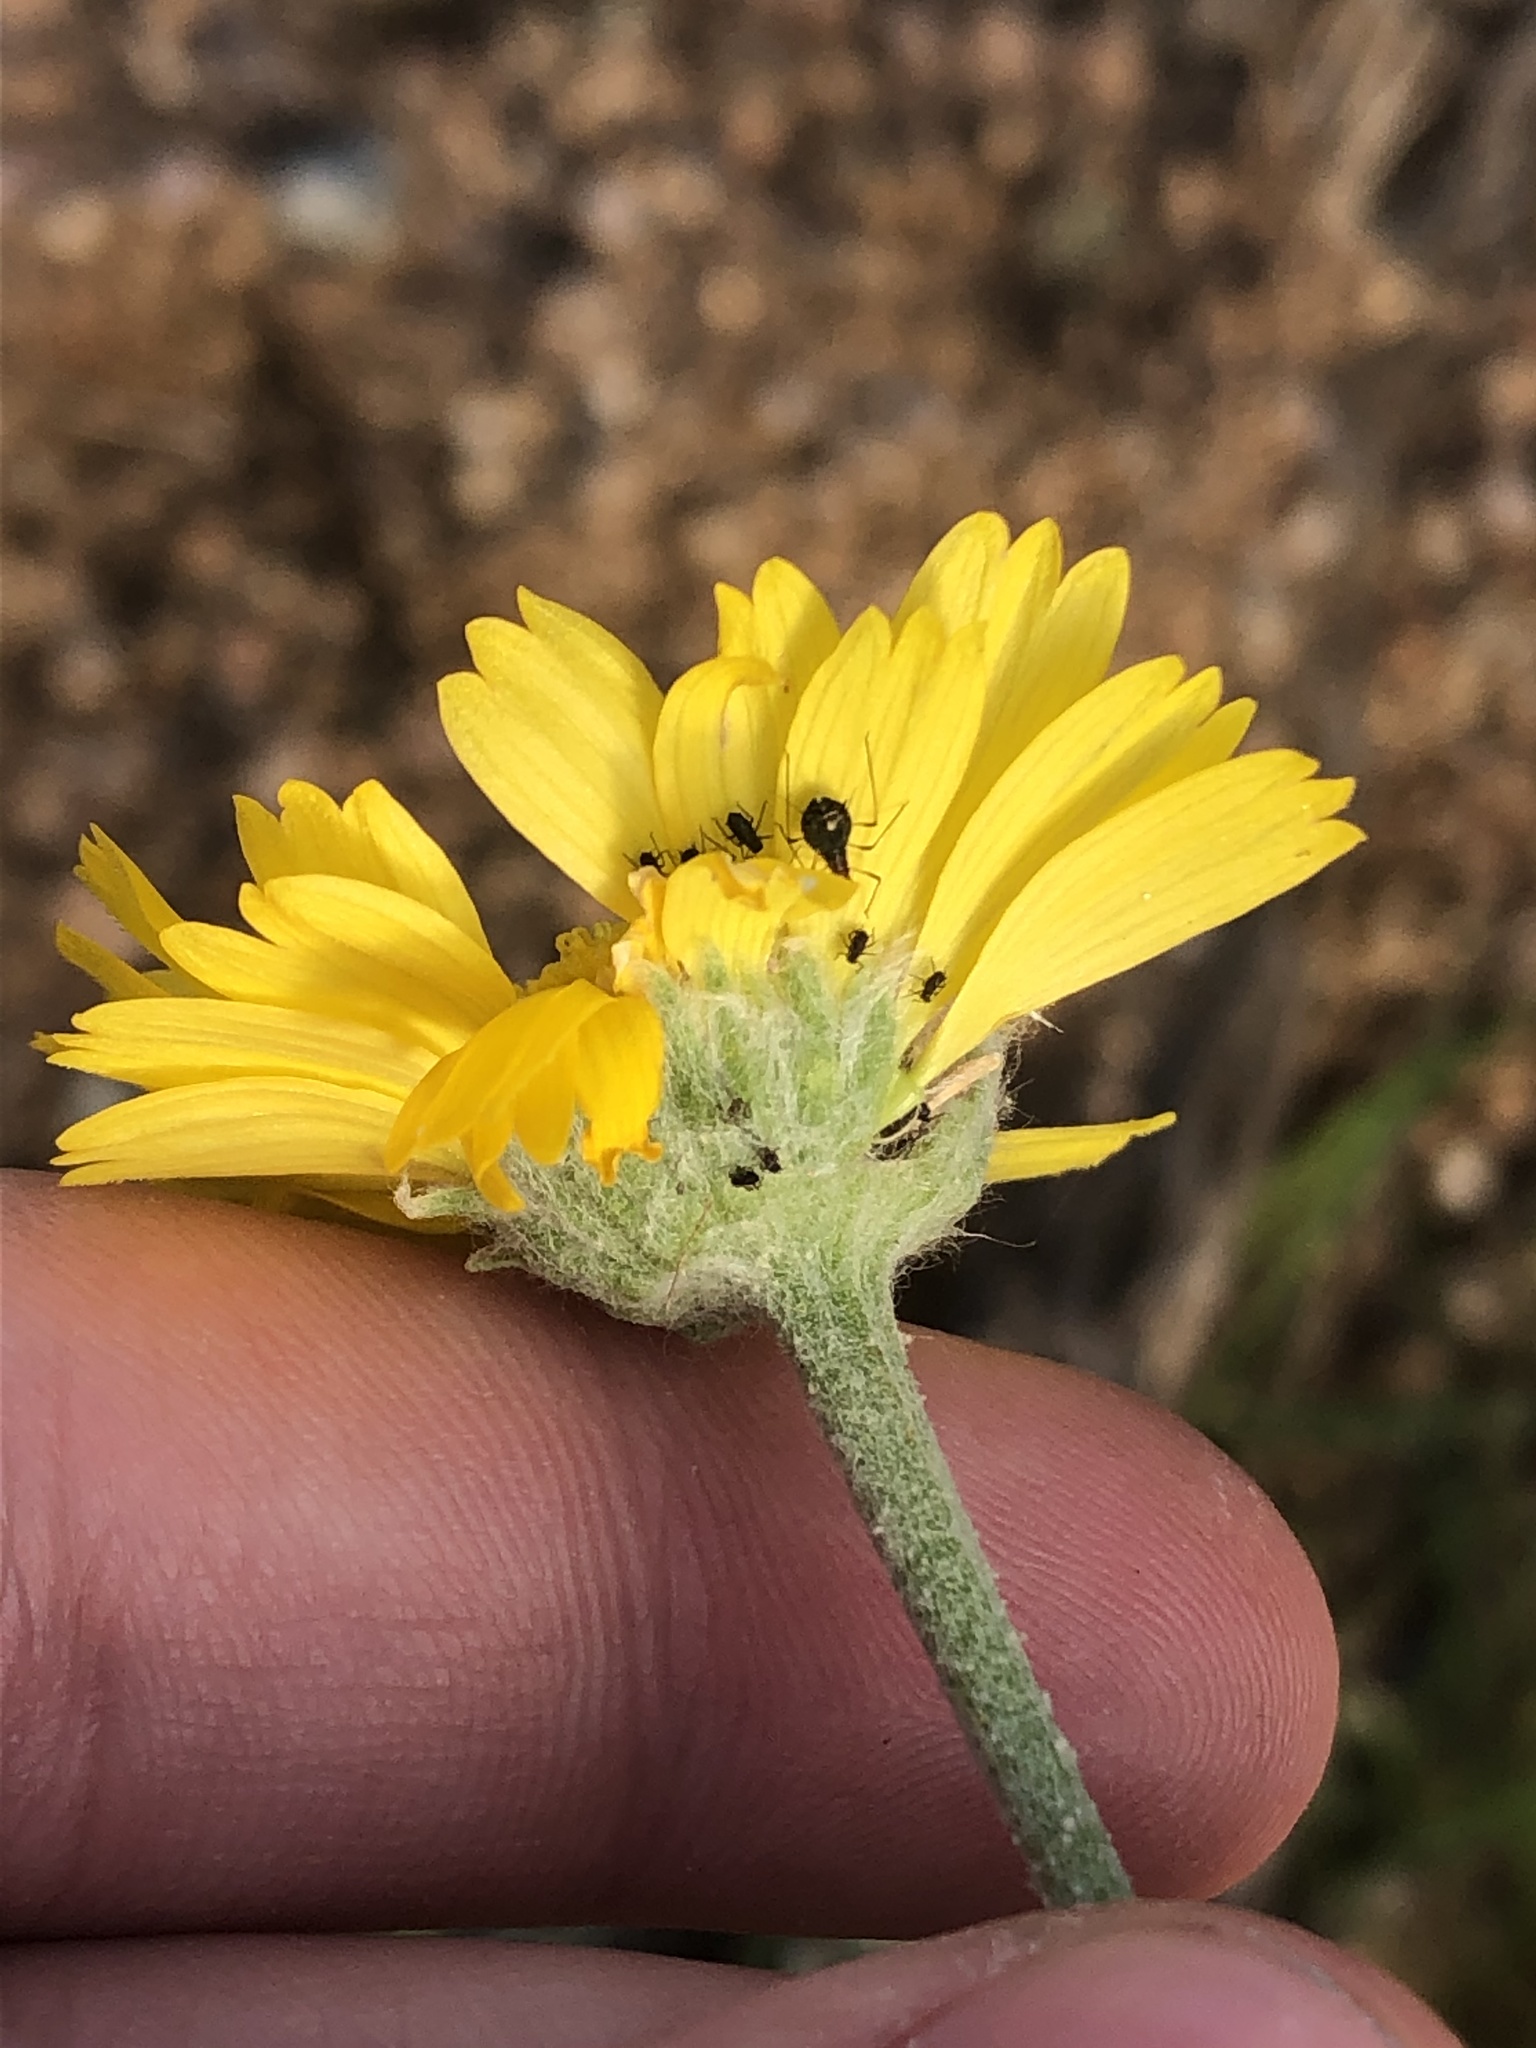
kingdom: Plantae
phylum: Tracheophyta
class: Magnoliopsida
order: Asterales
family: Asteraceae
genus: Baileya
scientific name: Baileya multiradiata
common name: Desert-marigold
